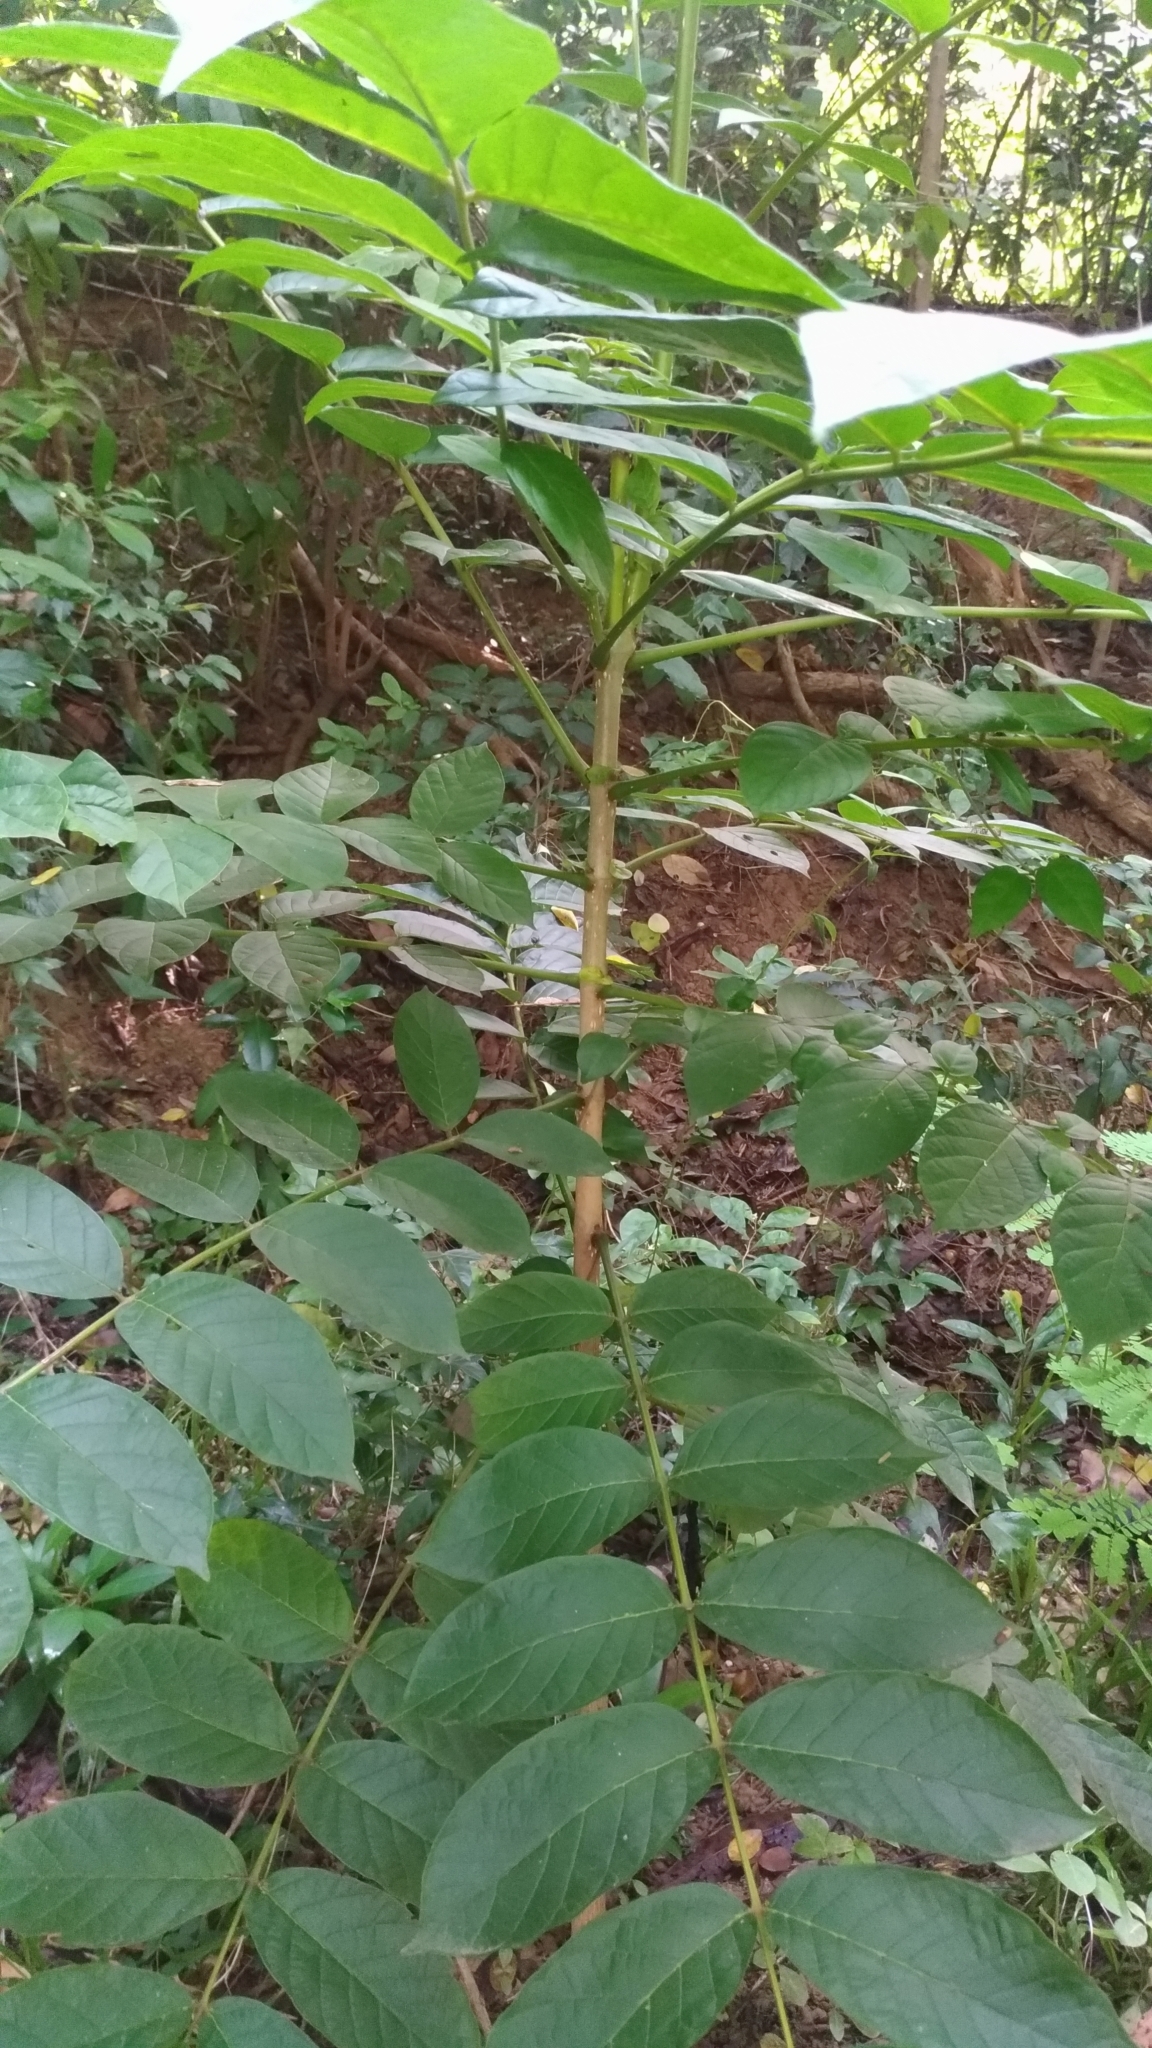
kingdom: Plantae
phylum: Tracheophyta
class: Magnoliopsida
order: Lamiales
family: Bignoniaceae
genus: Spathodea
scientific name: Spathodea campanulata
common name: African tuliptree
